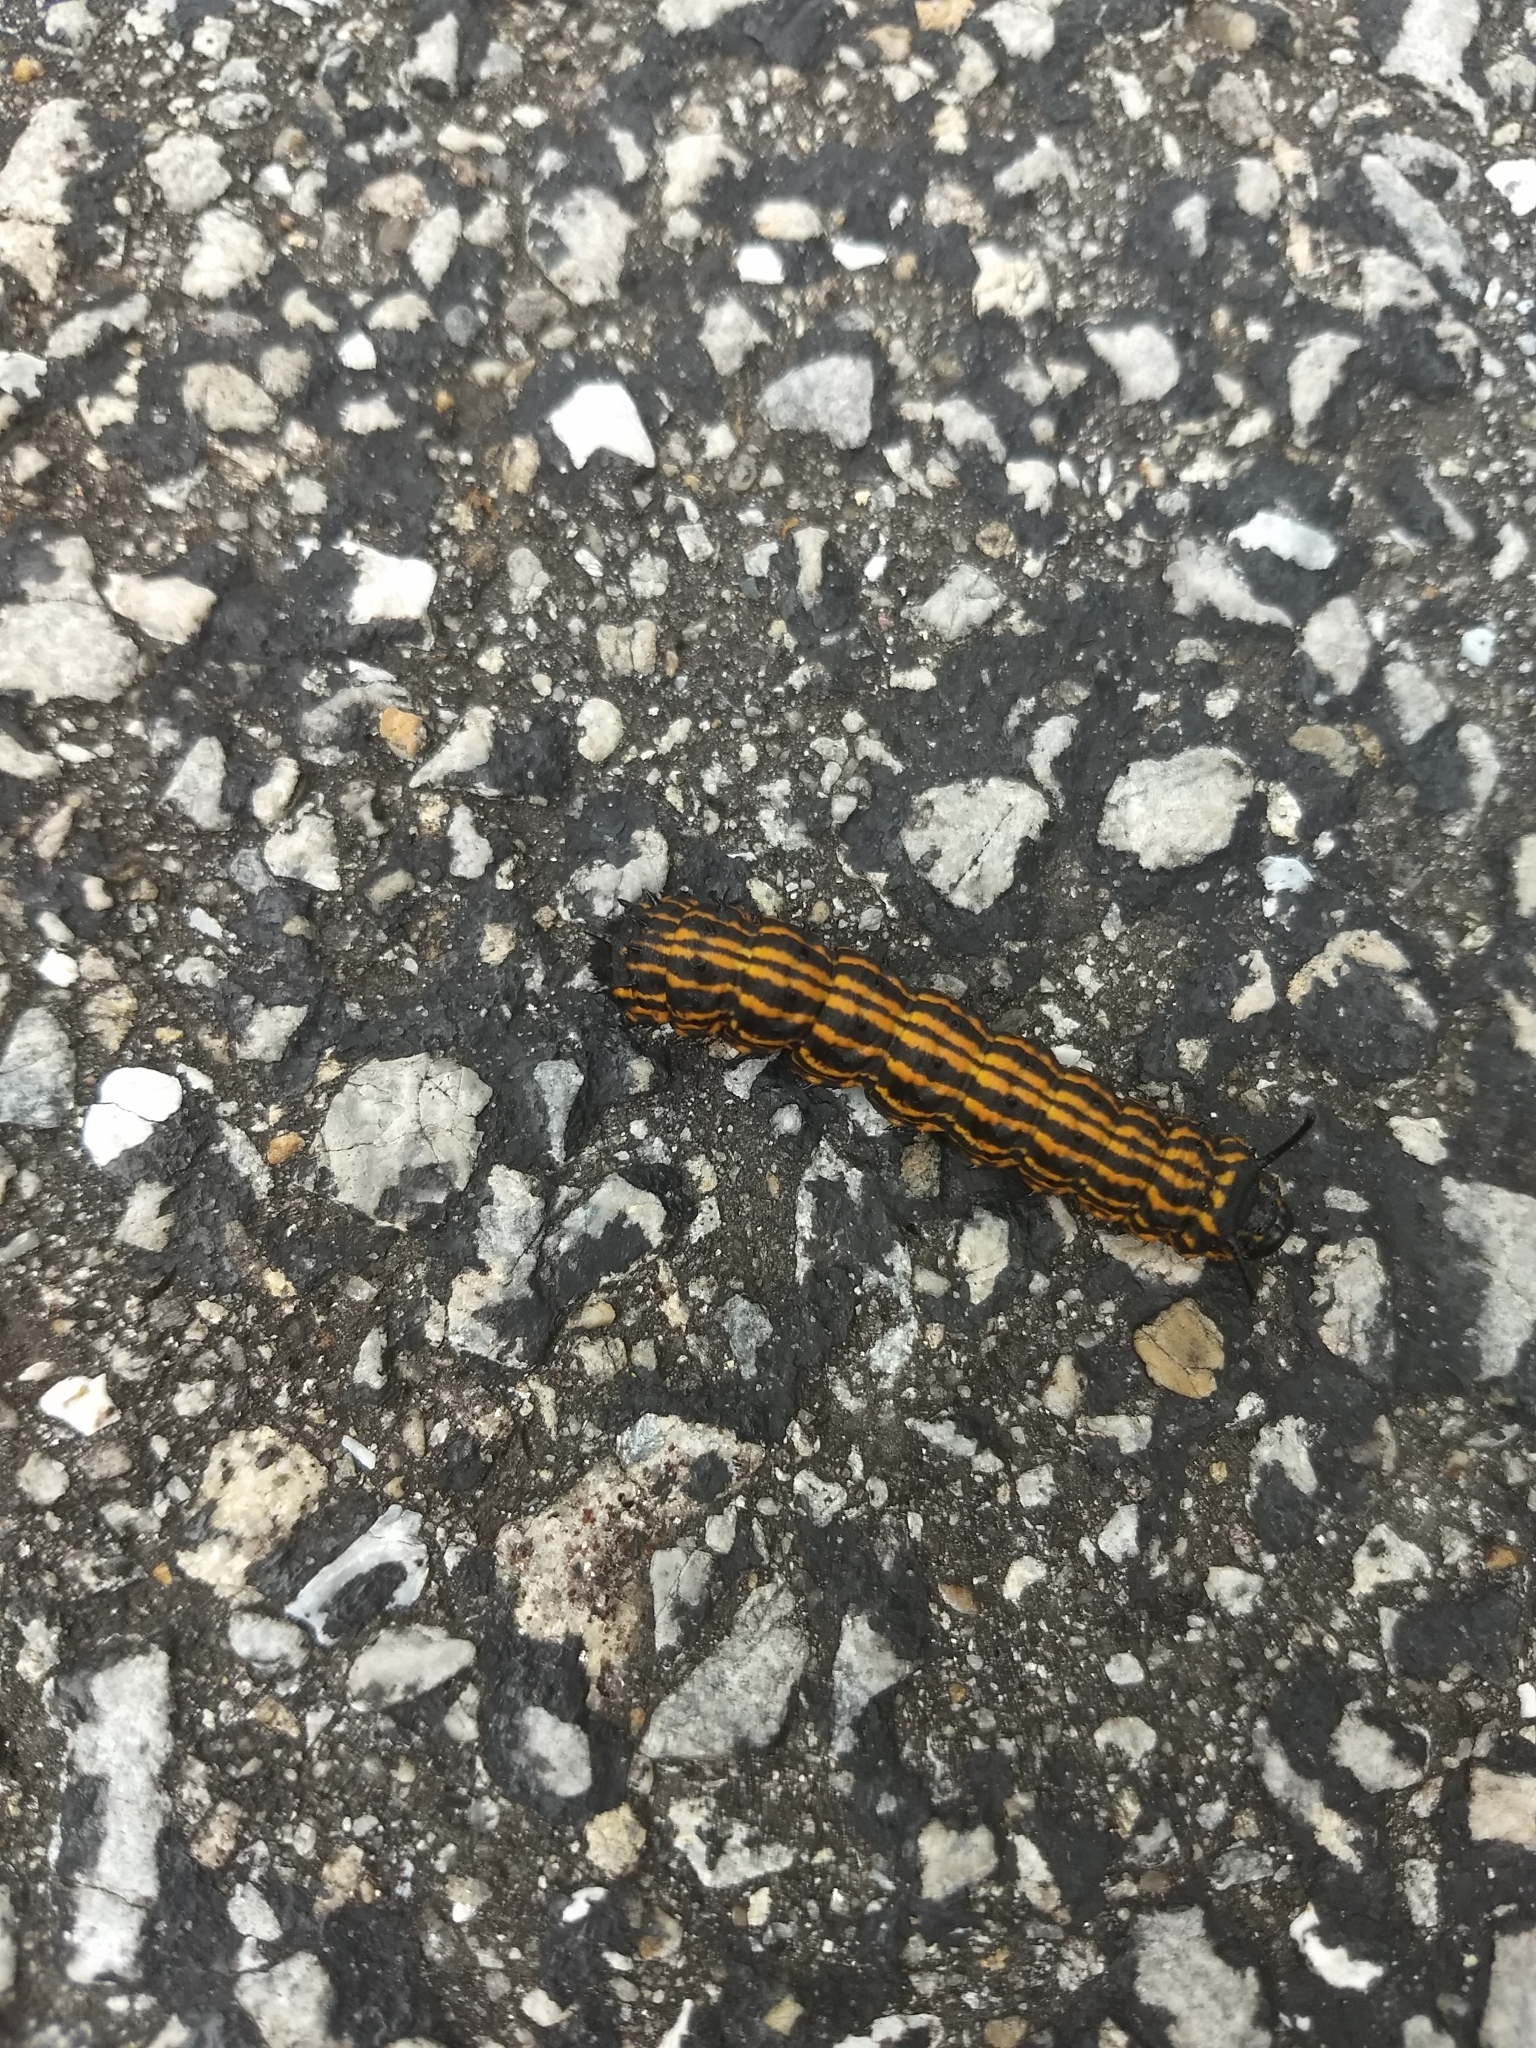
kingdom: Animalia
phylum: Arthropoda
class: Insecta
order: Lepidoptera
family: Saturniidae
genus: Anisota
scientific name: Anisota senatoria
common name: Orange-striped oakworm moth
